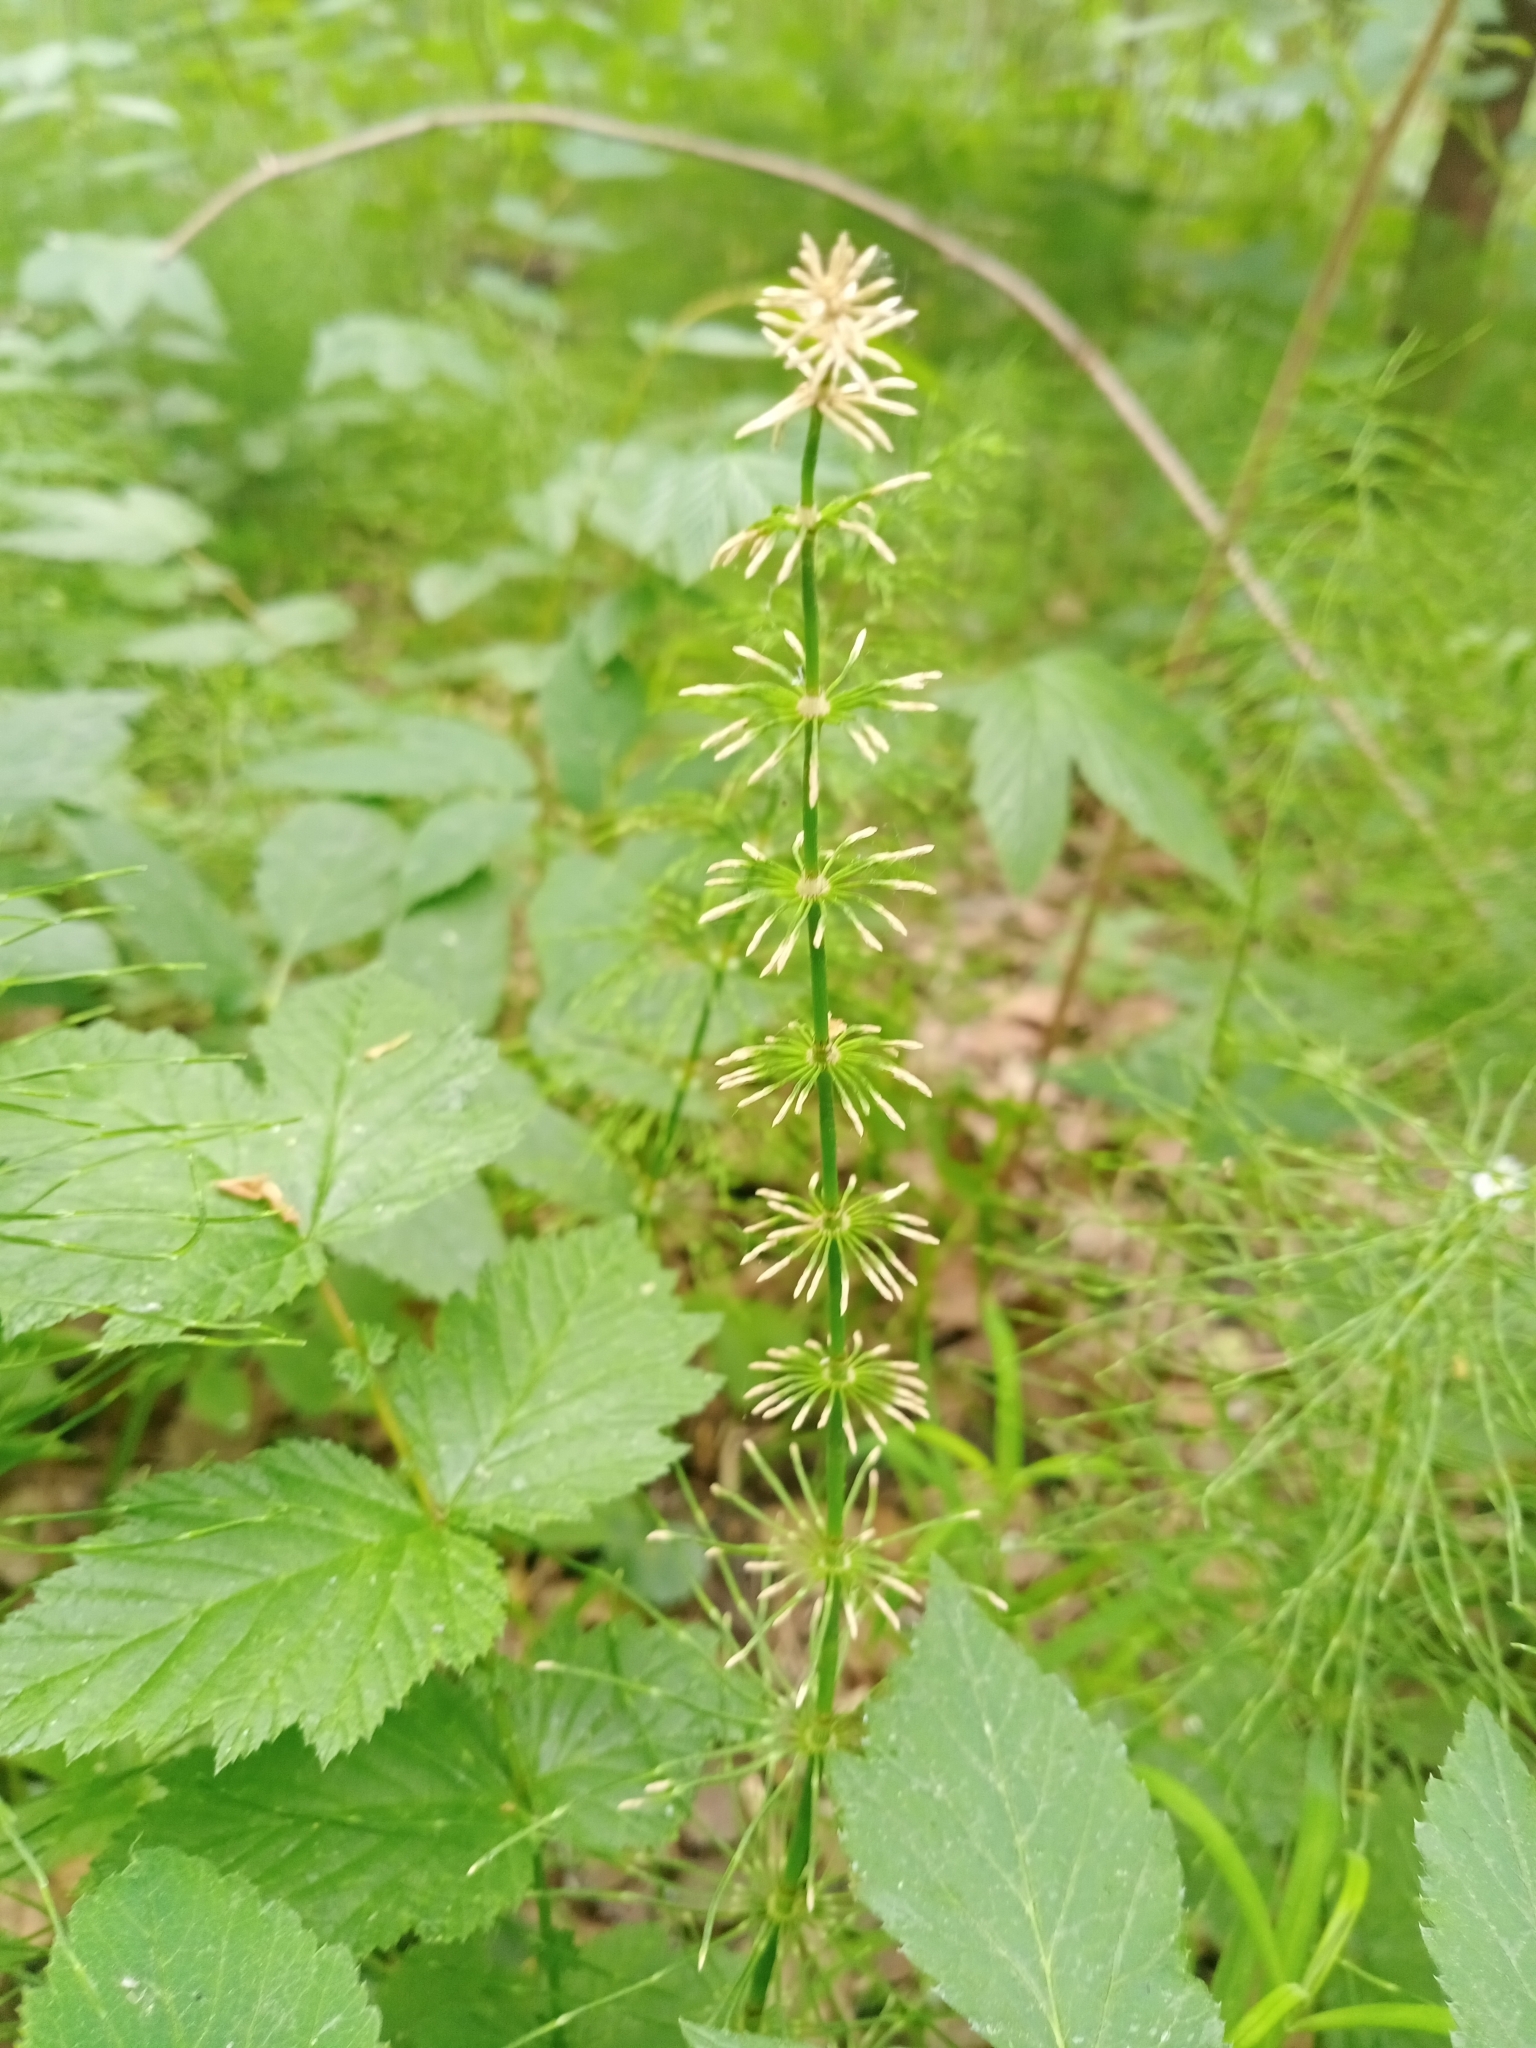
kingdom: Plantae
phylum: Tracheophyta
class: Polypodiopsida
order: Equisetales
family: Equisetaceae
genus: Equisetum
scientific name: Equisetum pratense
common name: Meadow horsetail
